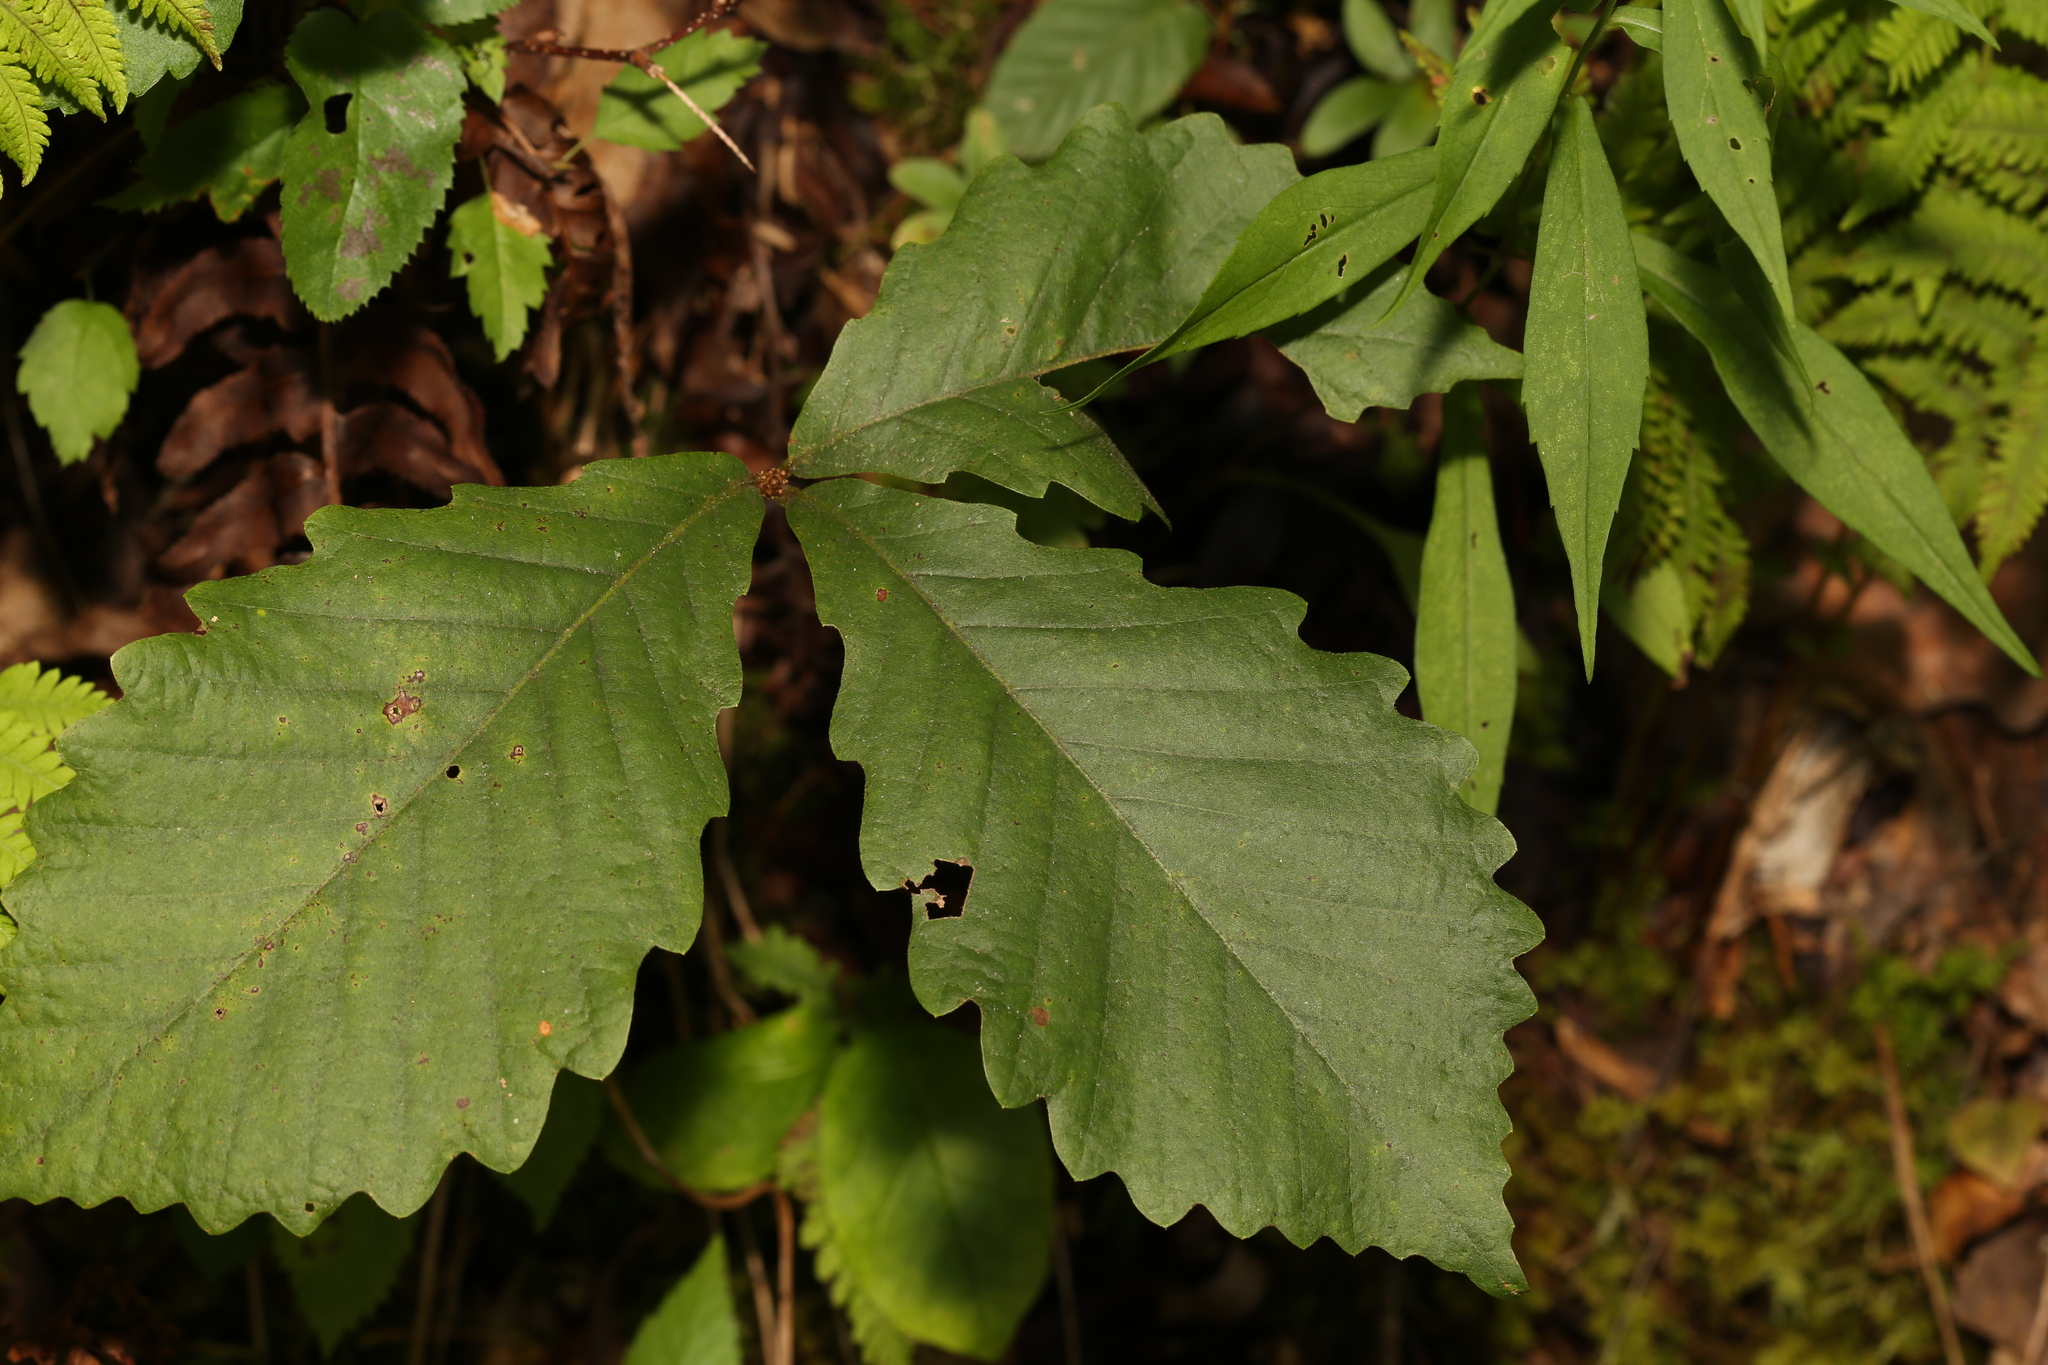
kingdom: Plantae
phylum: Tracheophyta
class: Magnoliopsida
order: Fagales
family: Fagaceae
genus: Quercus
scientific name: Quercus montana
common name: Chestnut oak
